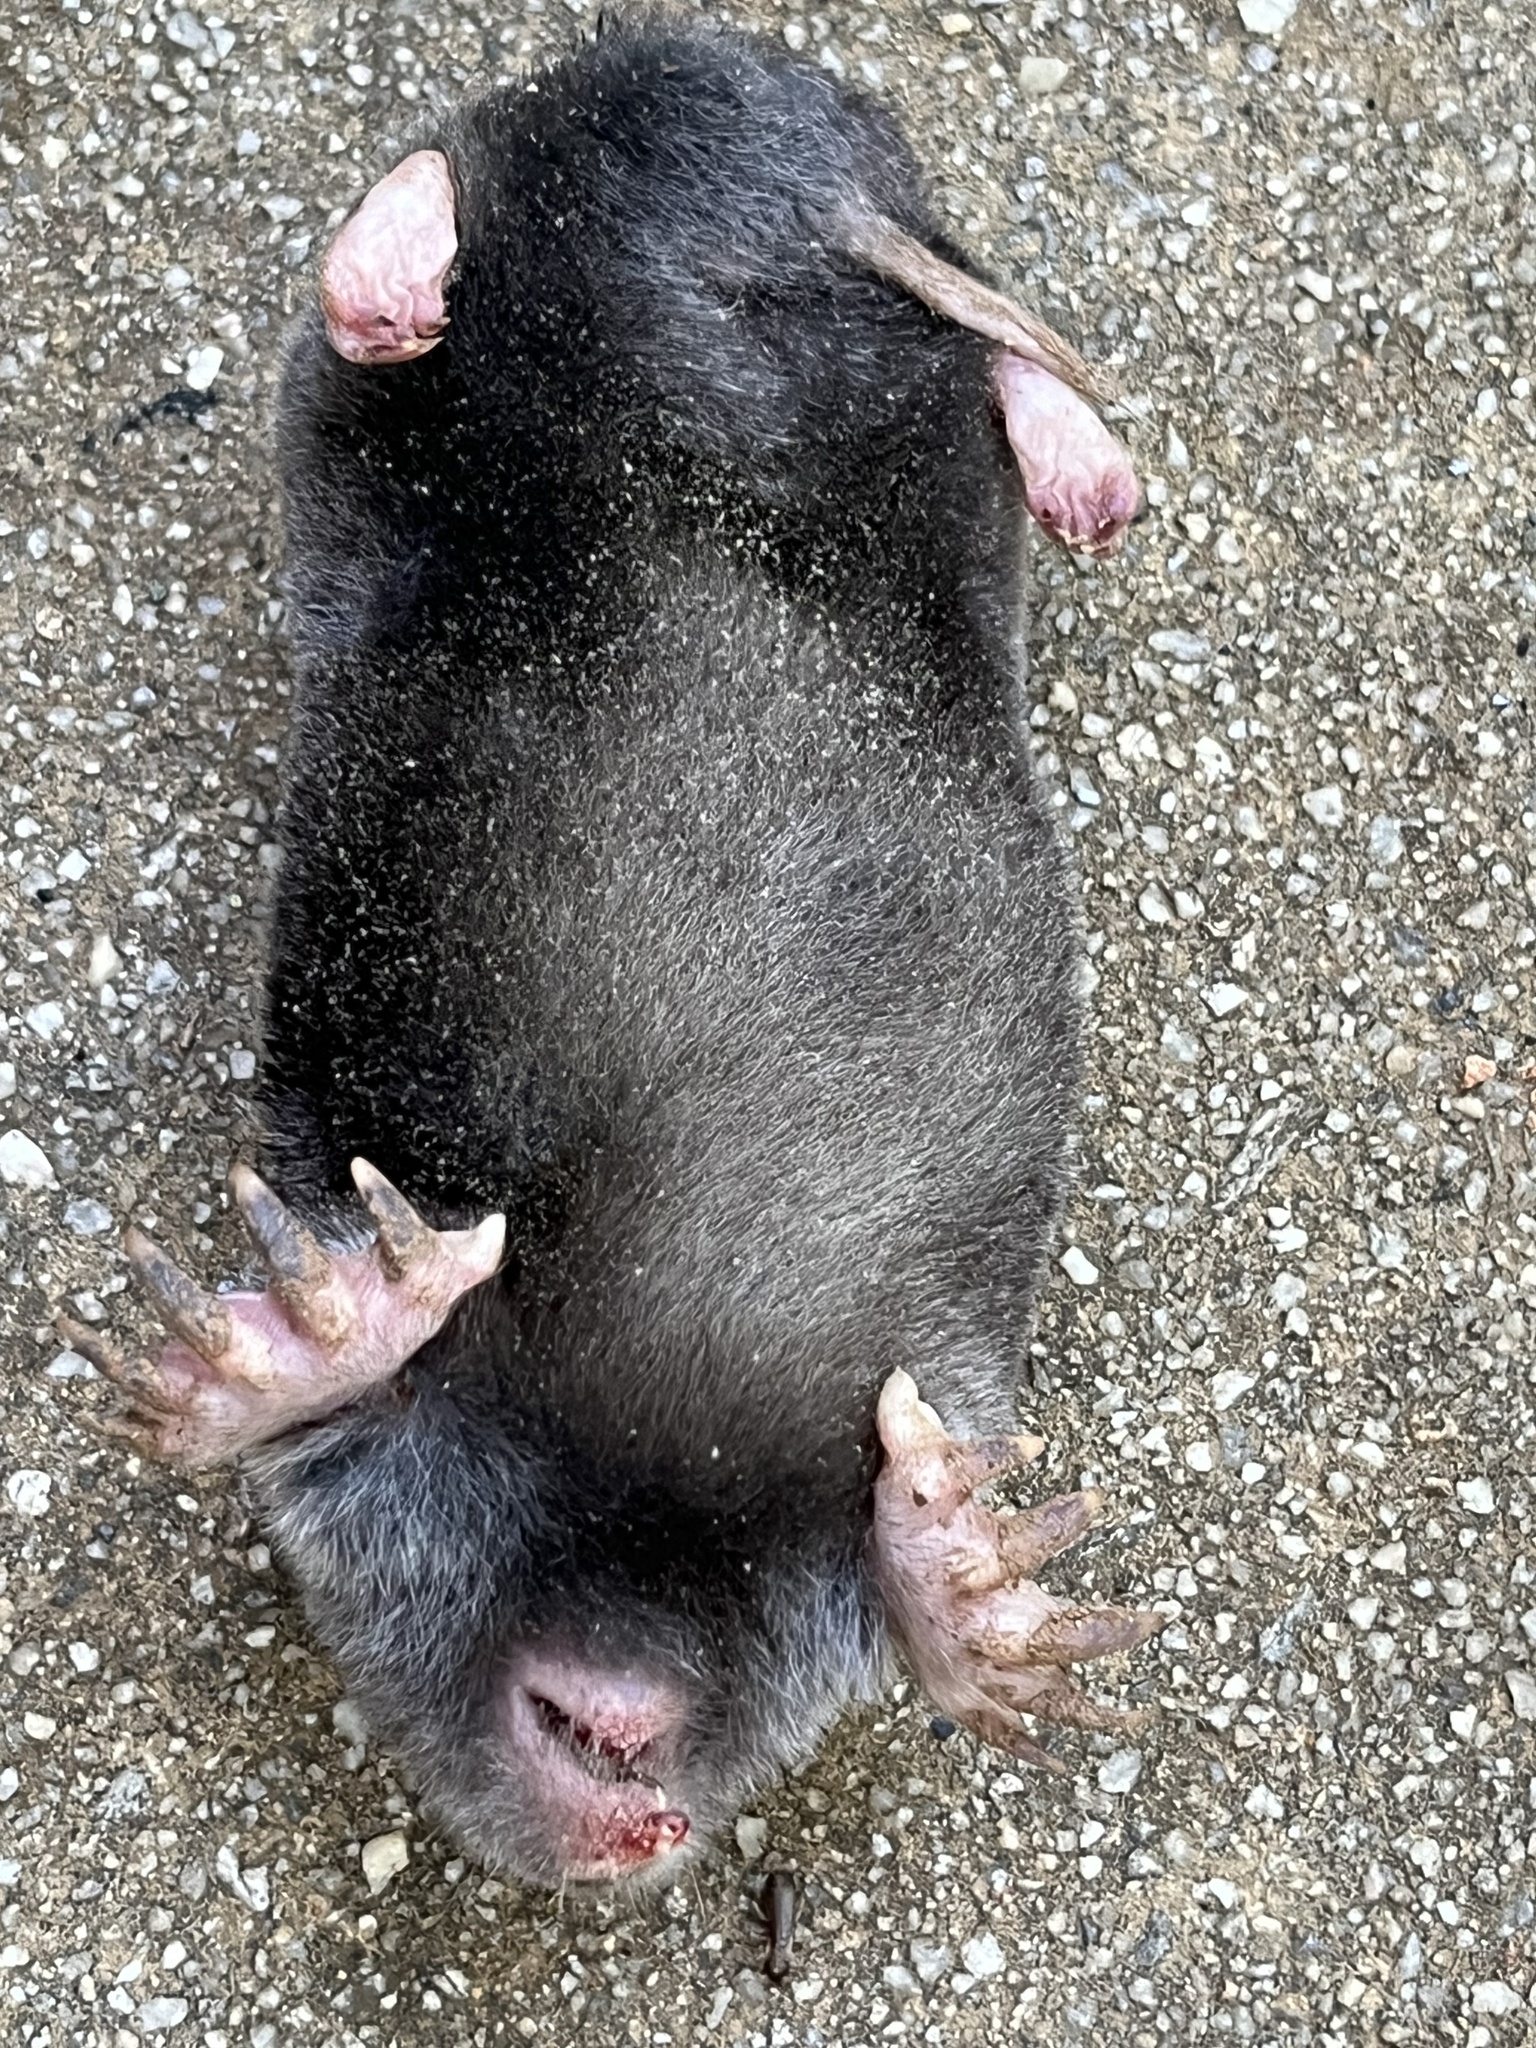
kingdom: Animalia
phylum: Chordata
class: Mammalia
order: Soricomorpha
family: Talpidae
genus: Scalopus
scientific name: Scalopus aquaticus
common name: Eastern mole
